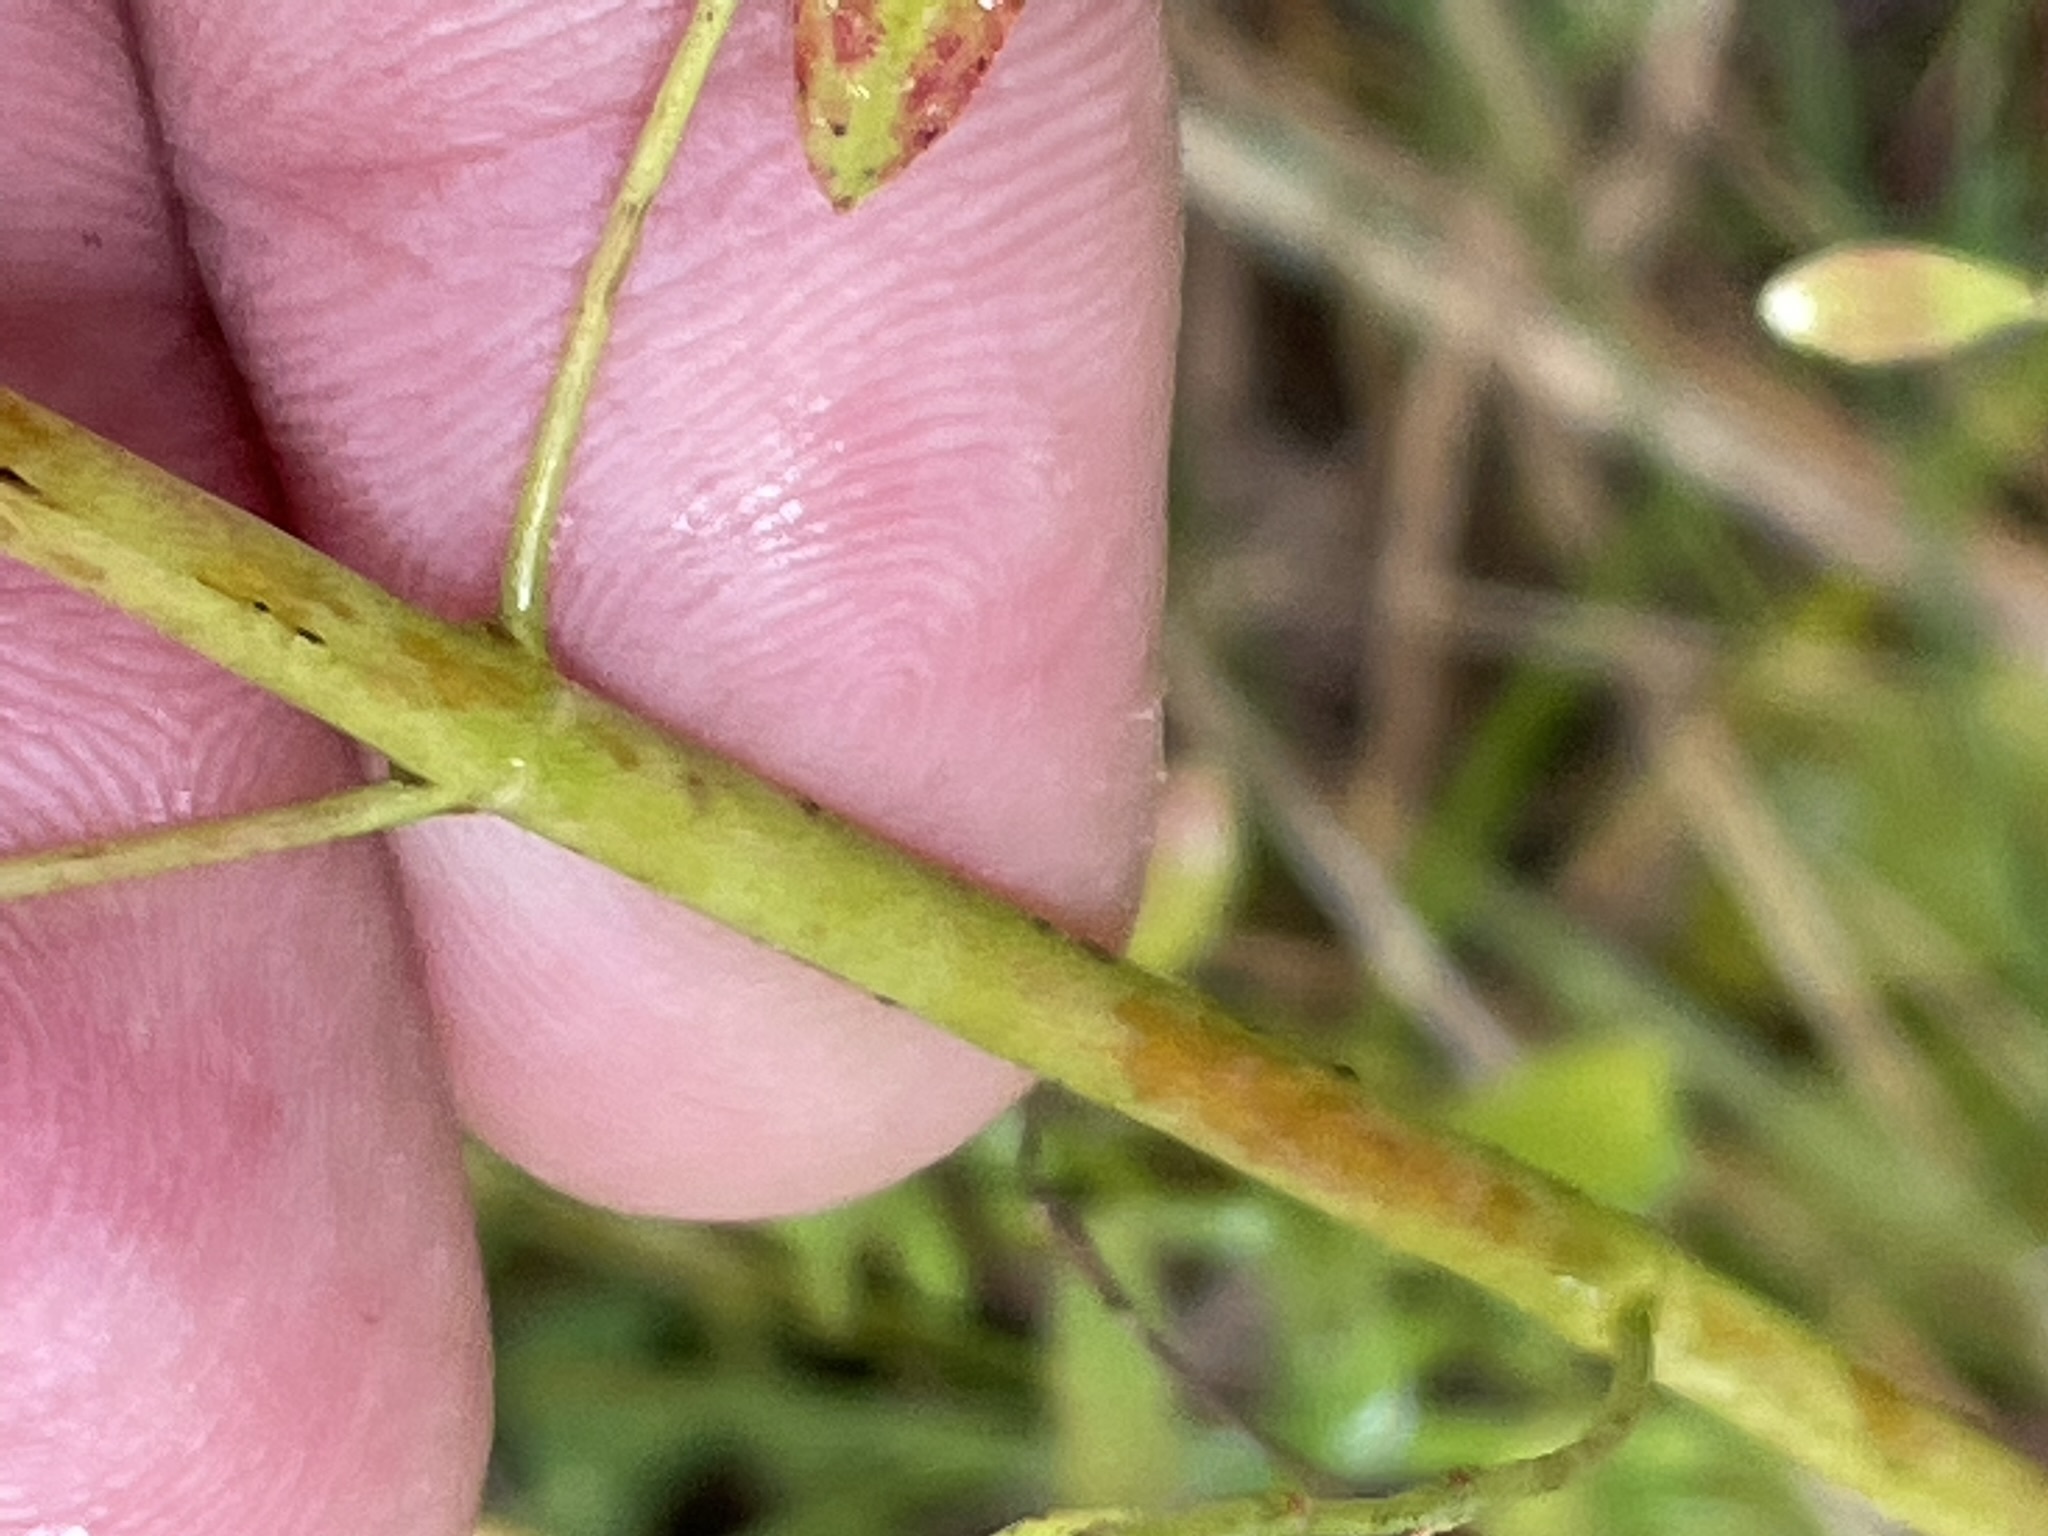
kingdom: Plantae
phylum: Tracheophyta
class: Magnoliopsida
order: Malpighiales
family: Hypericaceae
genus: Hypericum
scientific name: Hypericum perforatum
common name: Common st. johnswort
